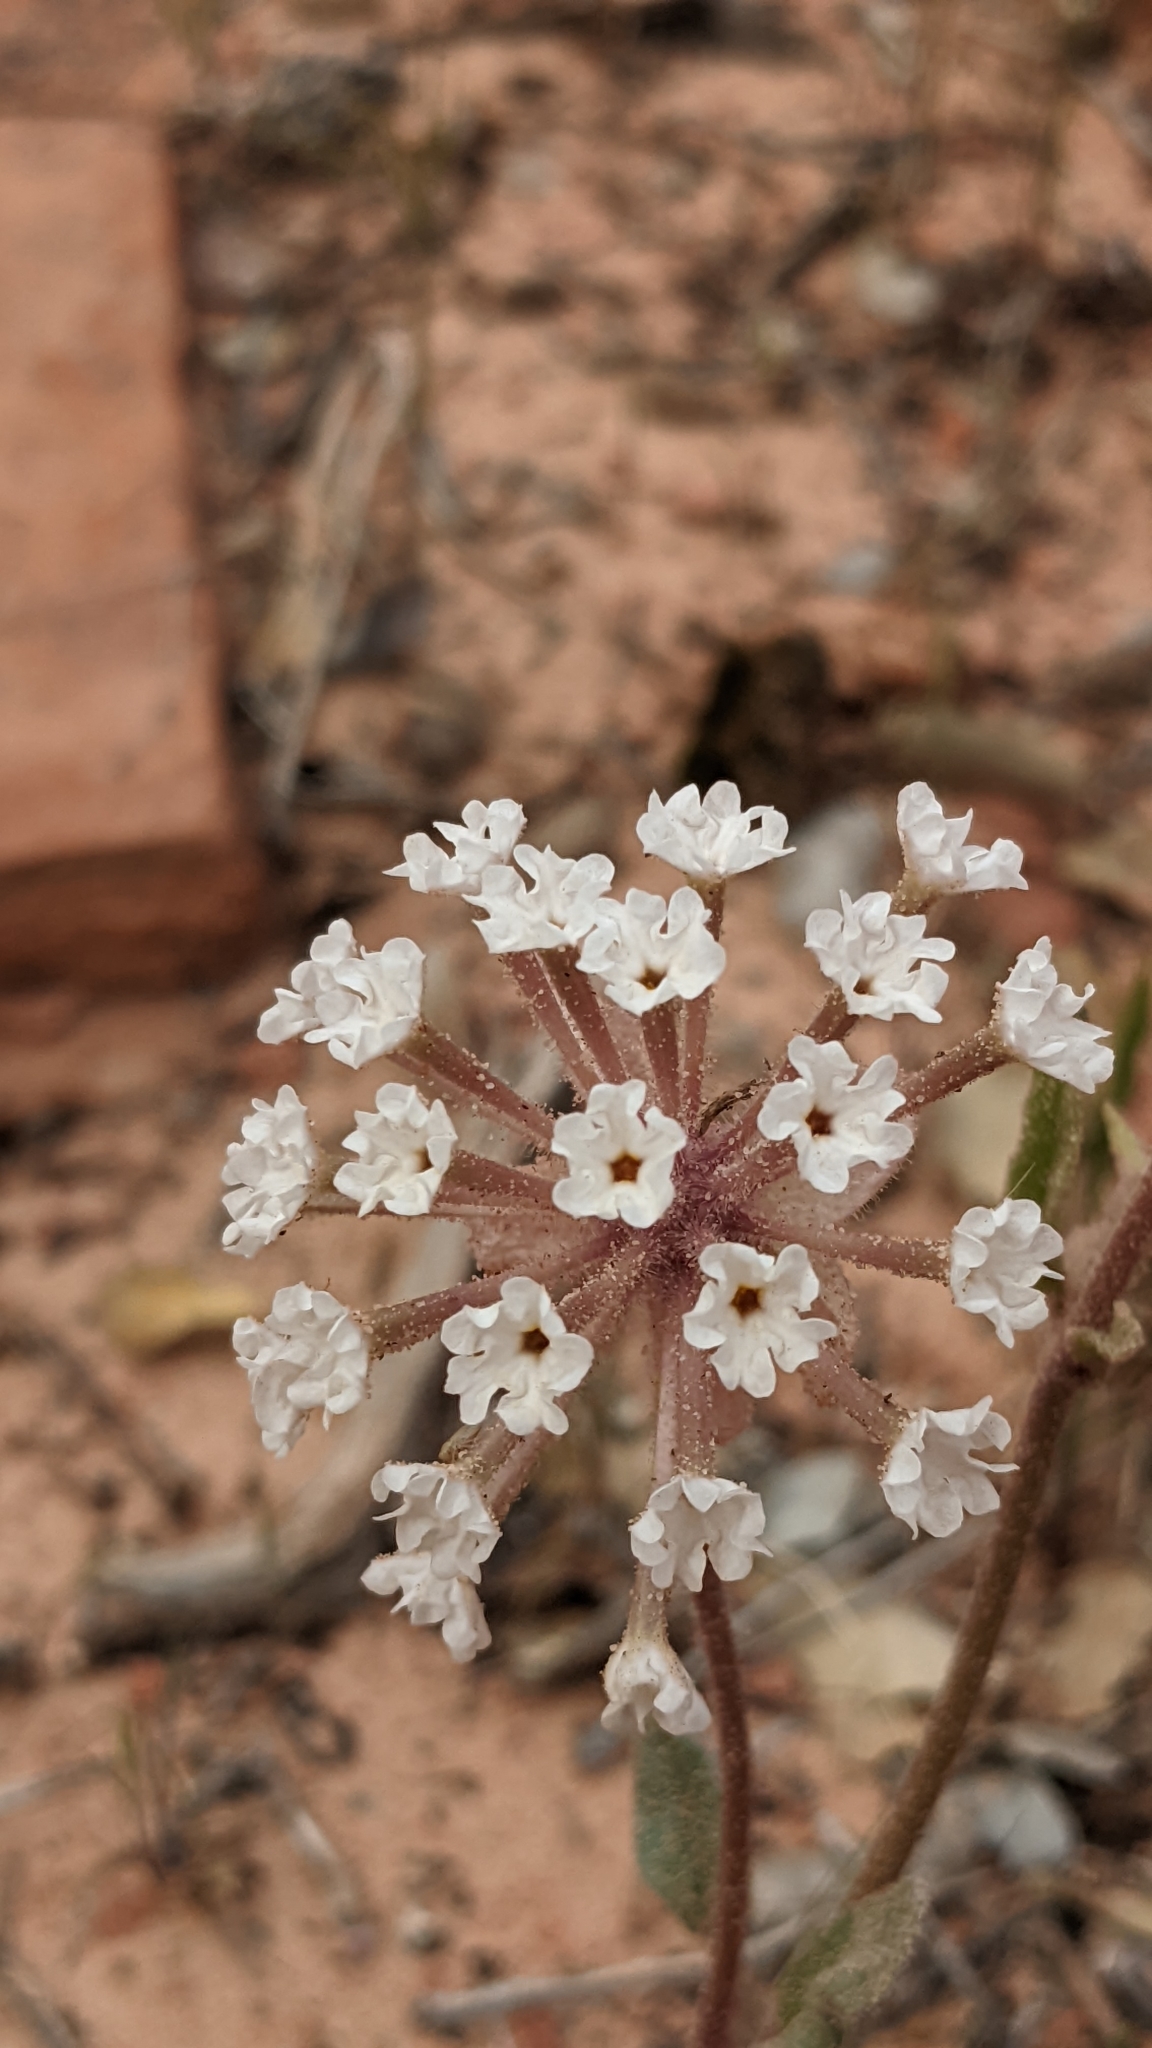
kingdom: Plantae
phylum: Tracheophyta
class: Magnoliopsida
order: Caryophyllales
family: Nyctaginaceae
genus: Abronia
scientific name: Abronia elliptica
